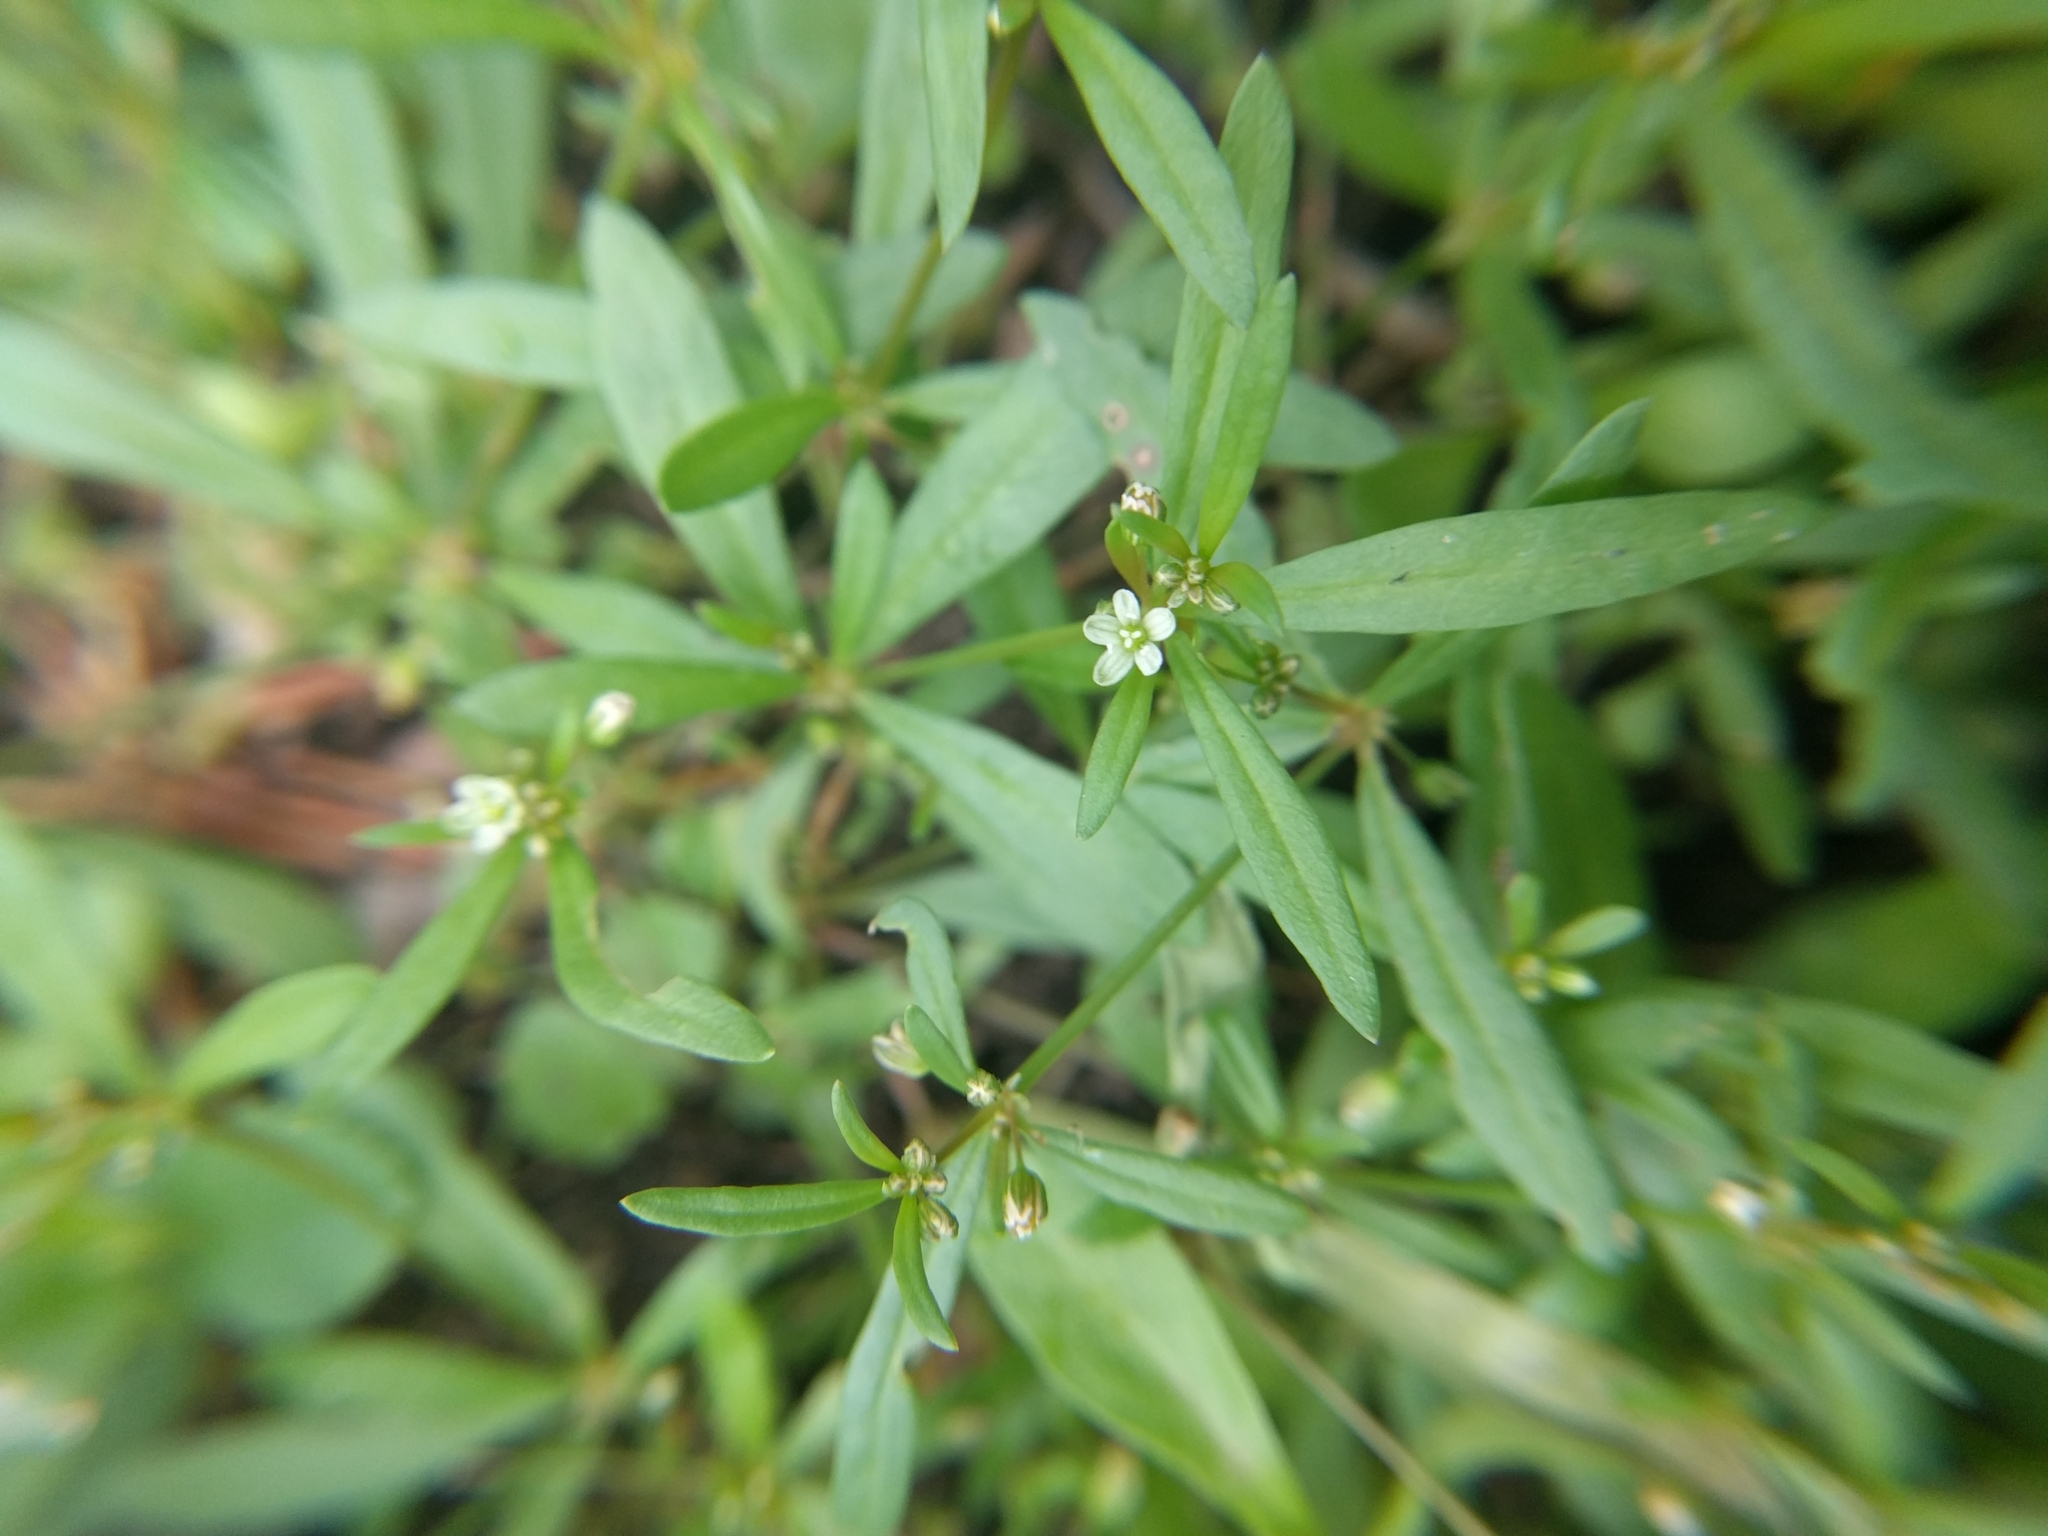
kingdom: Plantae
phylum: Tracheophyta
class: Magnoliopsida
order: Caryophyllales
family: Molluginaceae
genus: Mollugo
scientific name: Mollugo verticillata
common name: Green carpetweed
